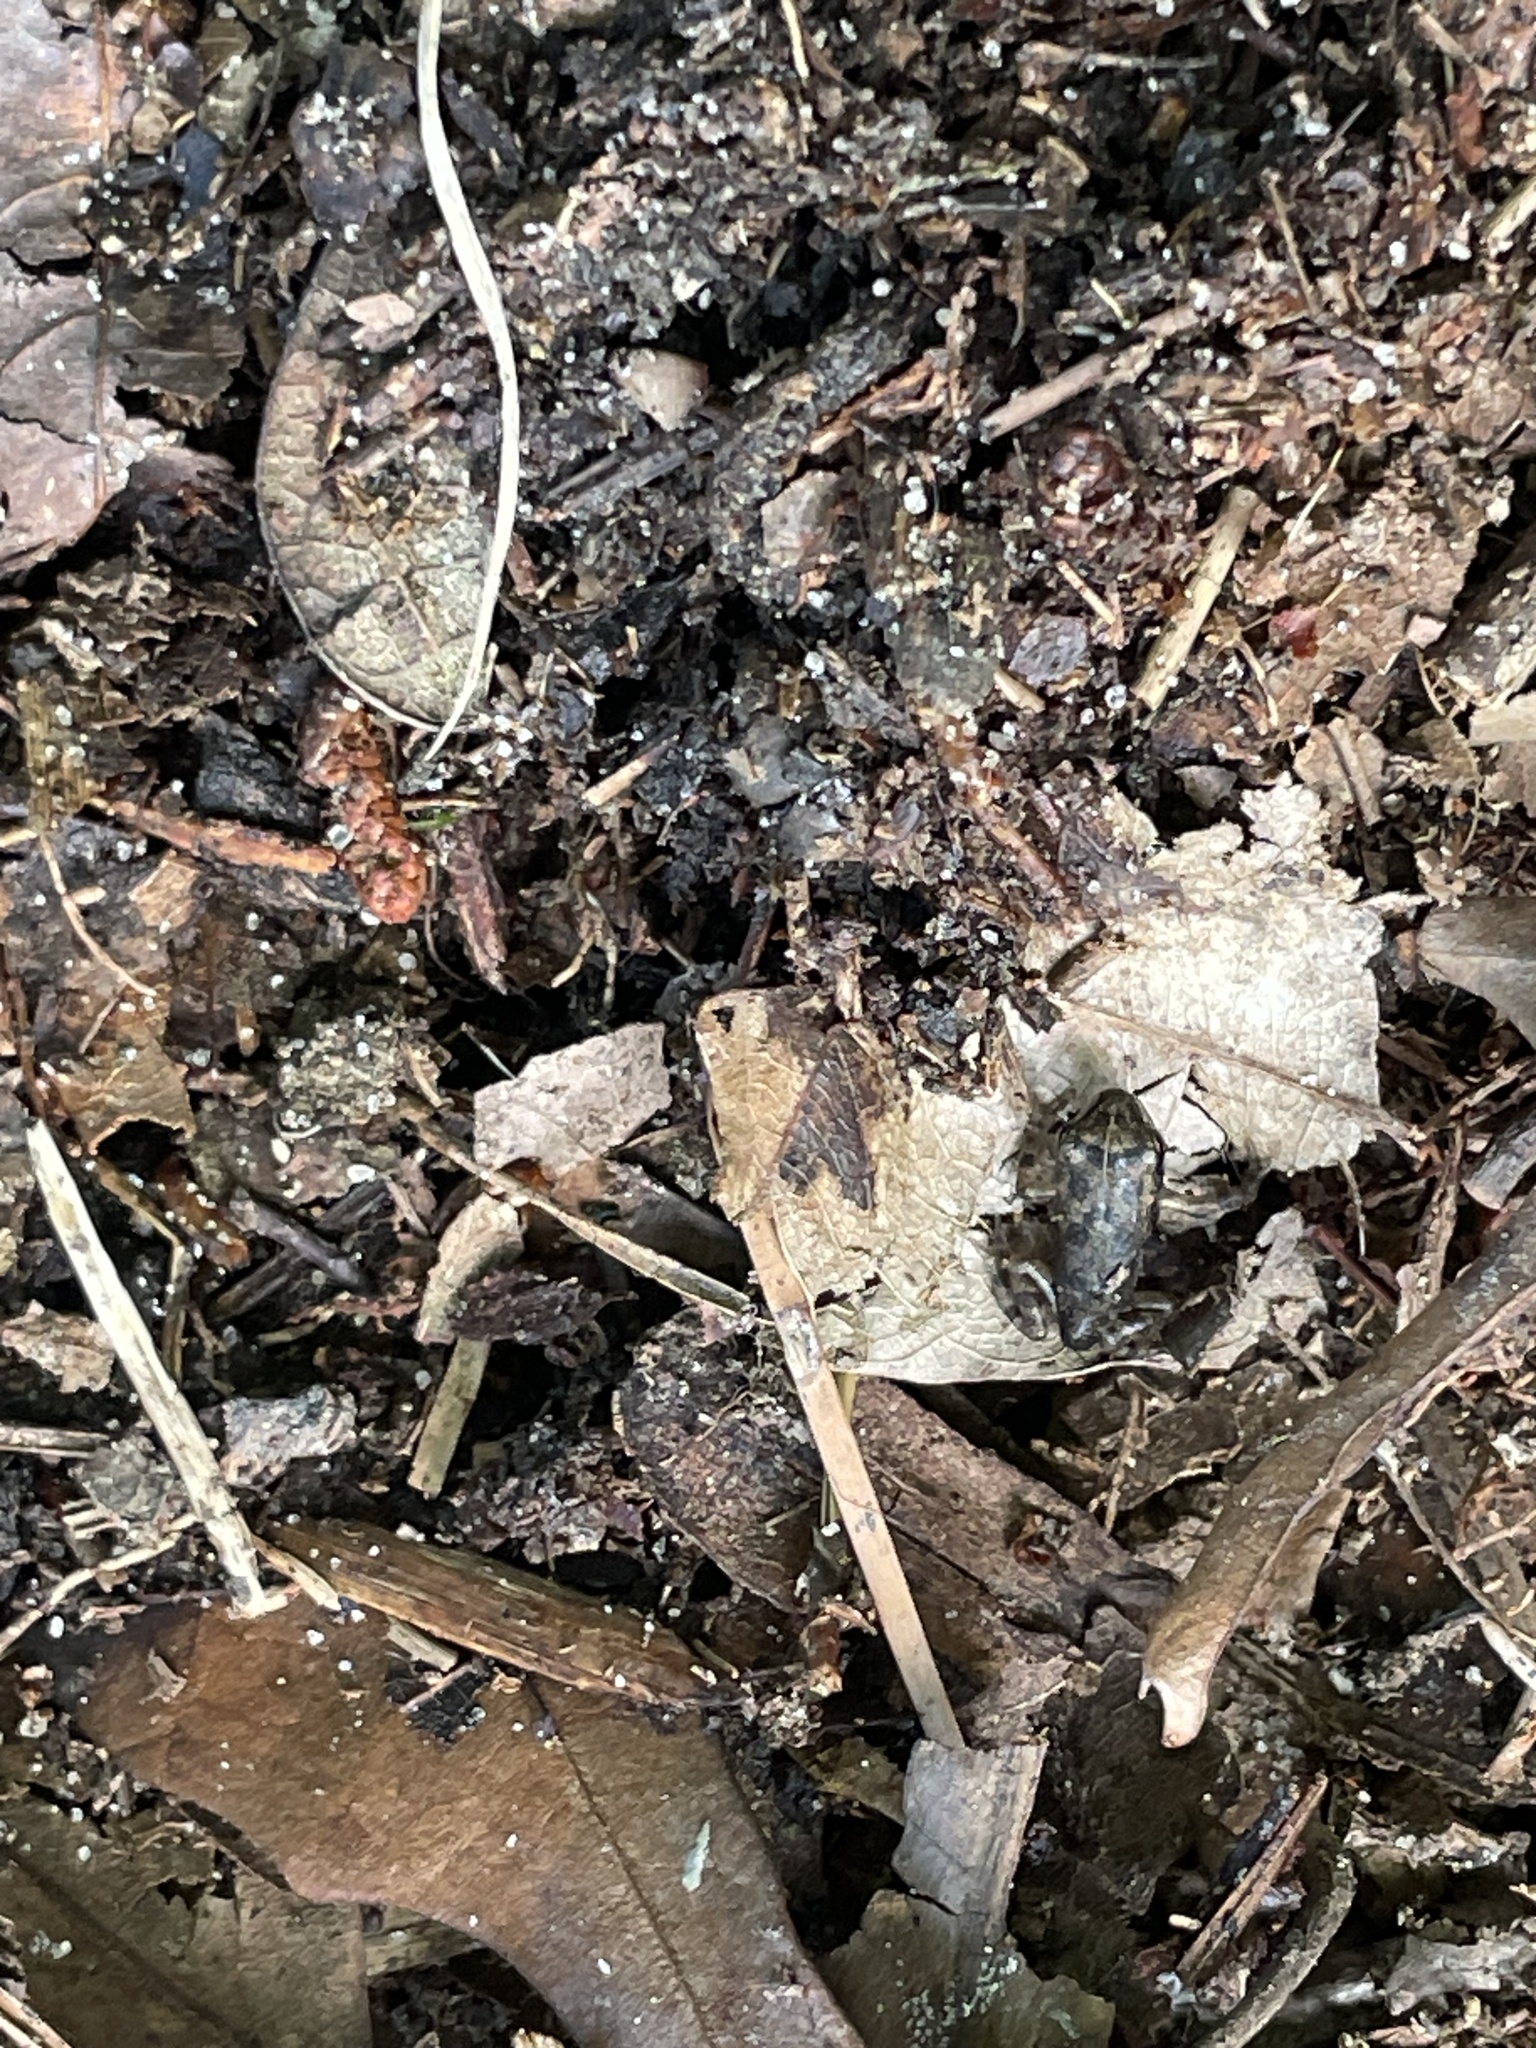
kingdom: Animalia
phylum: Chordata
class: Amphibia
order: Anura
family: Bufonidae
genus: Anaxyrus
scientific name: Anaxyrus fowleri
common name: Fowler's toad
